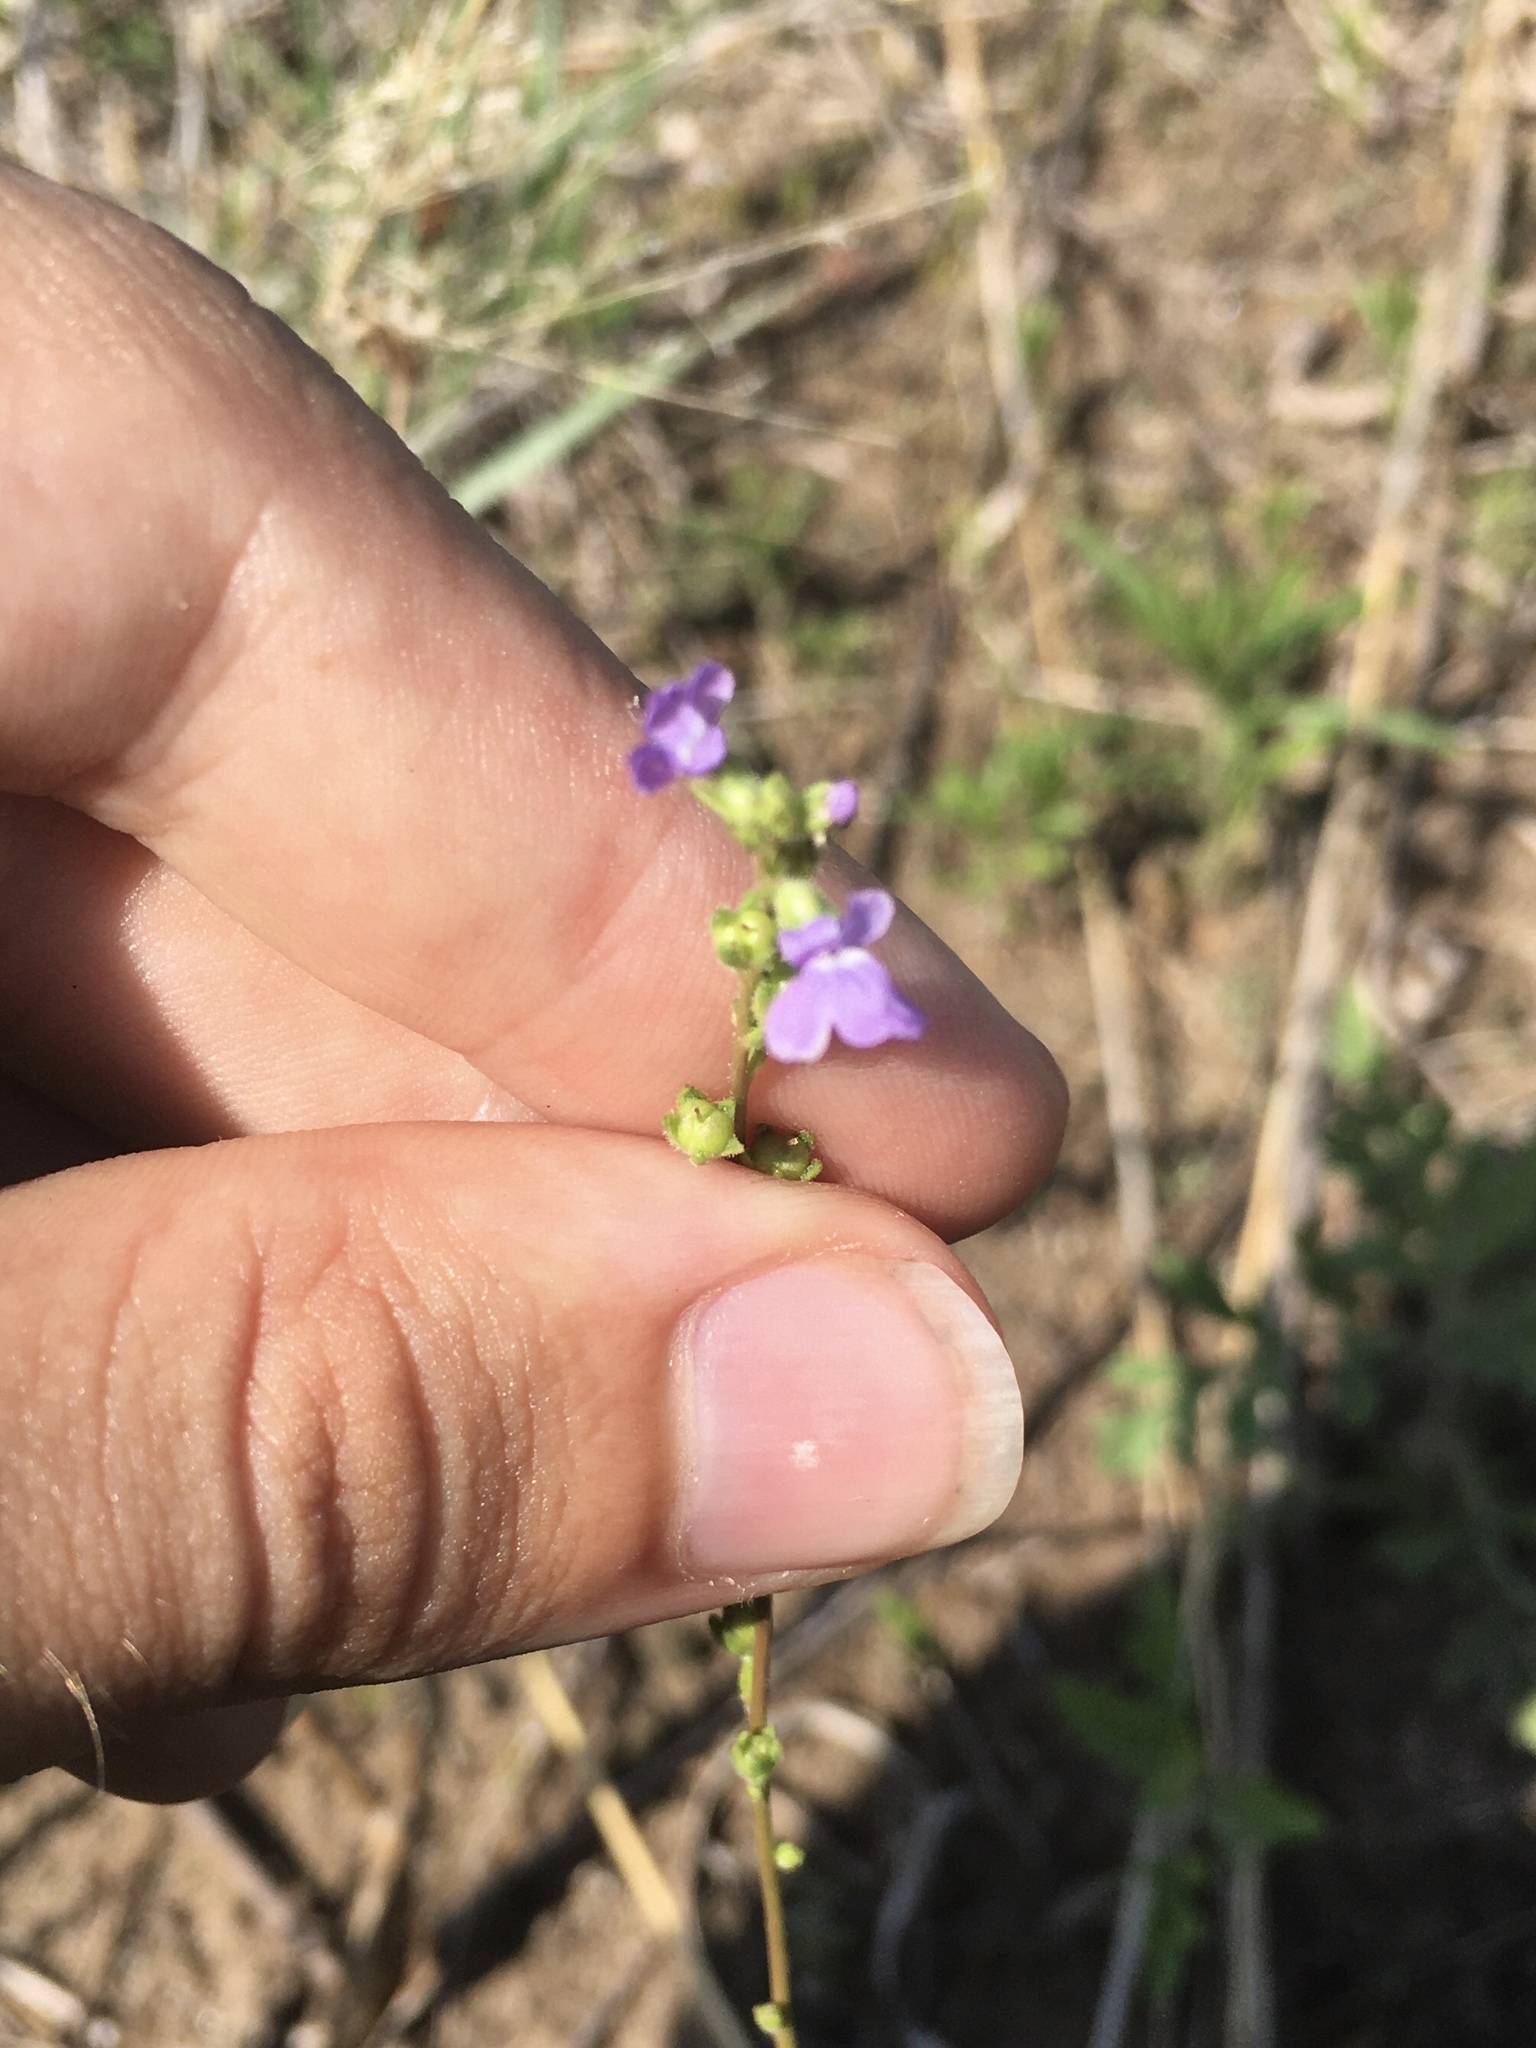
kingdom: Plantae
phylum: Tracheophyta
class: Magnoliopsida
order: Lamiales
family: Plantaginaceae
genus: Nuttallanthus
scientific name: Nuttallanthus canadensis
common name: Blue toadflax
